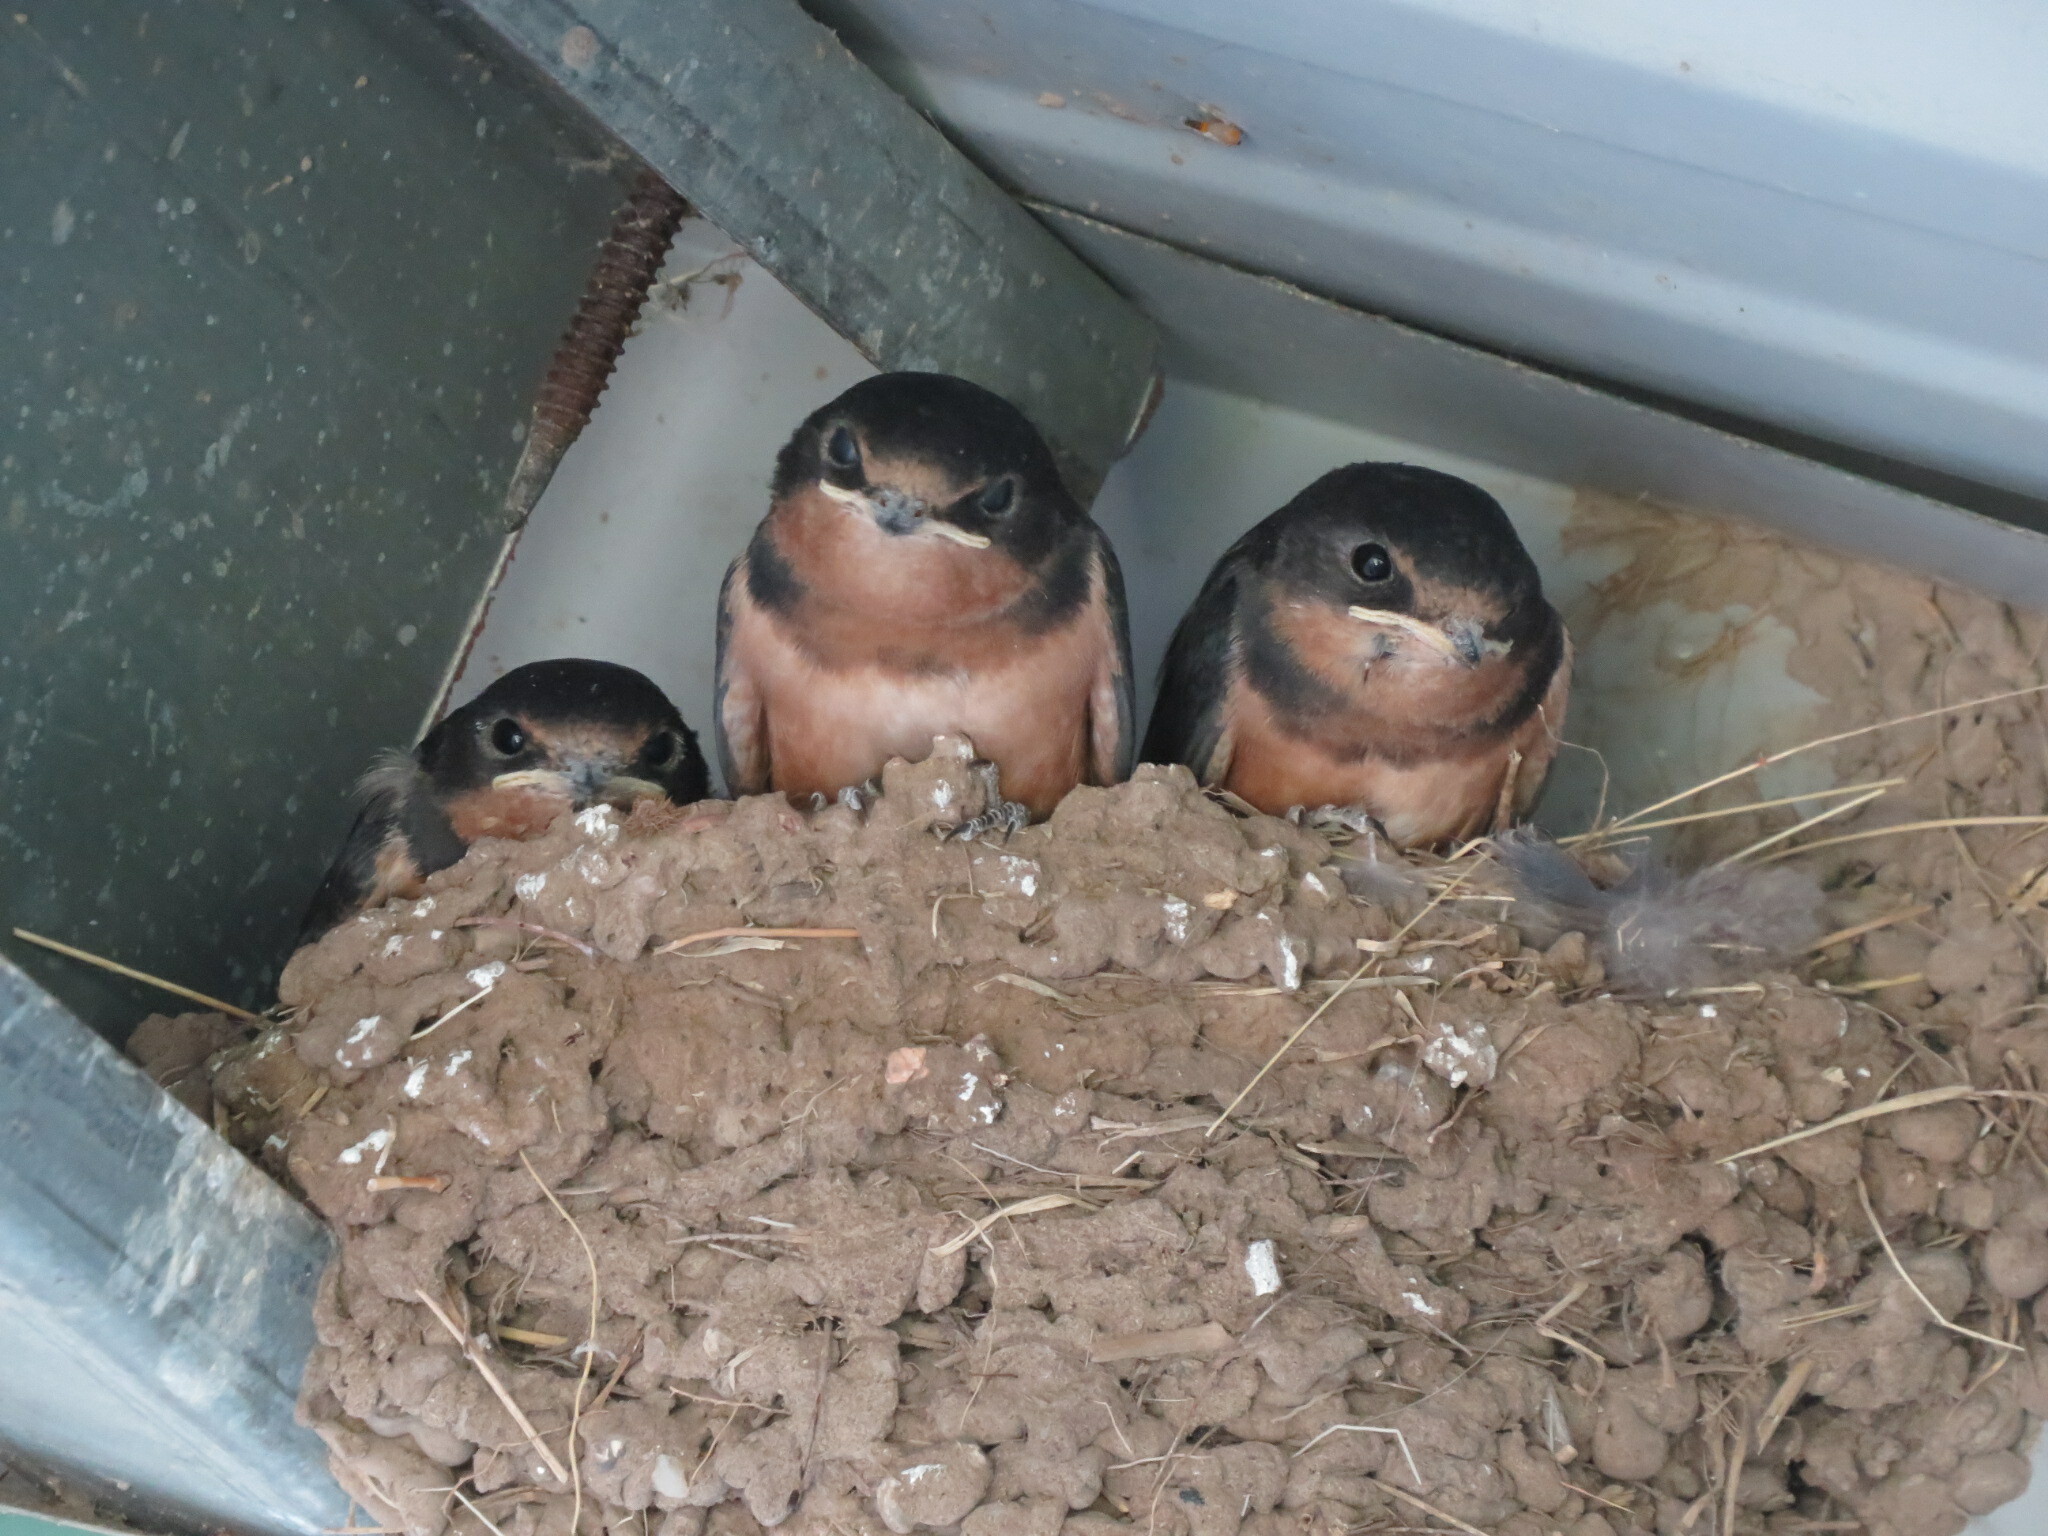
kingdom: Animalia
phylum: Chordata
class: Aves
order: Passeriformes
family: Hirundinidae
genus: Hirundo
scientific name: Hirundo rustica
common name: Barn swallow
